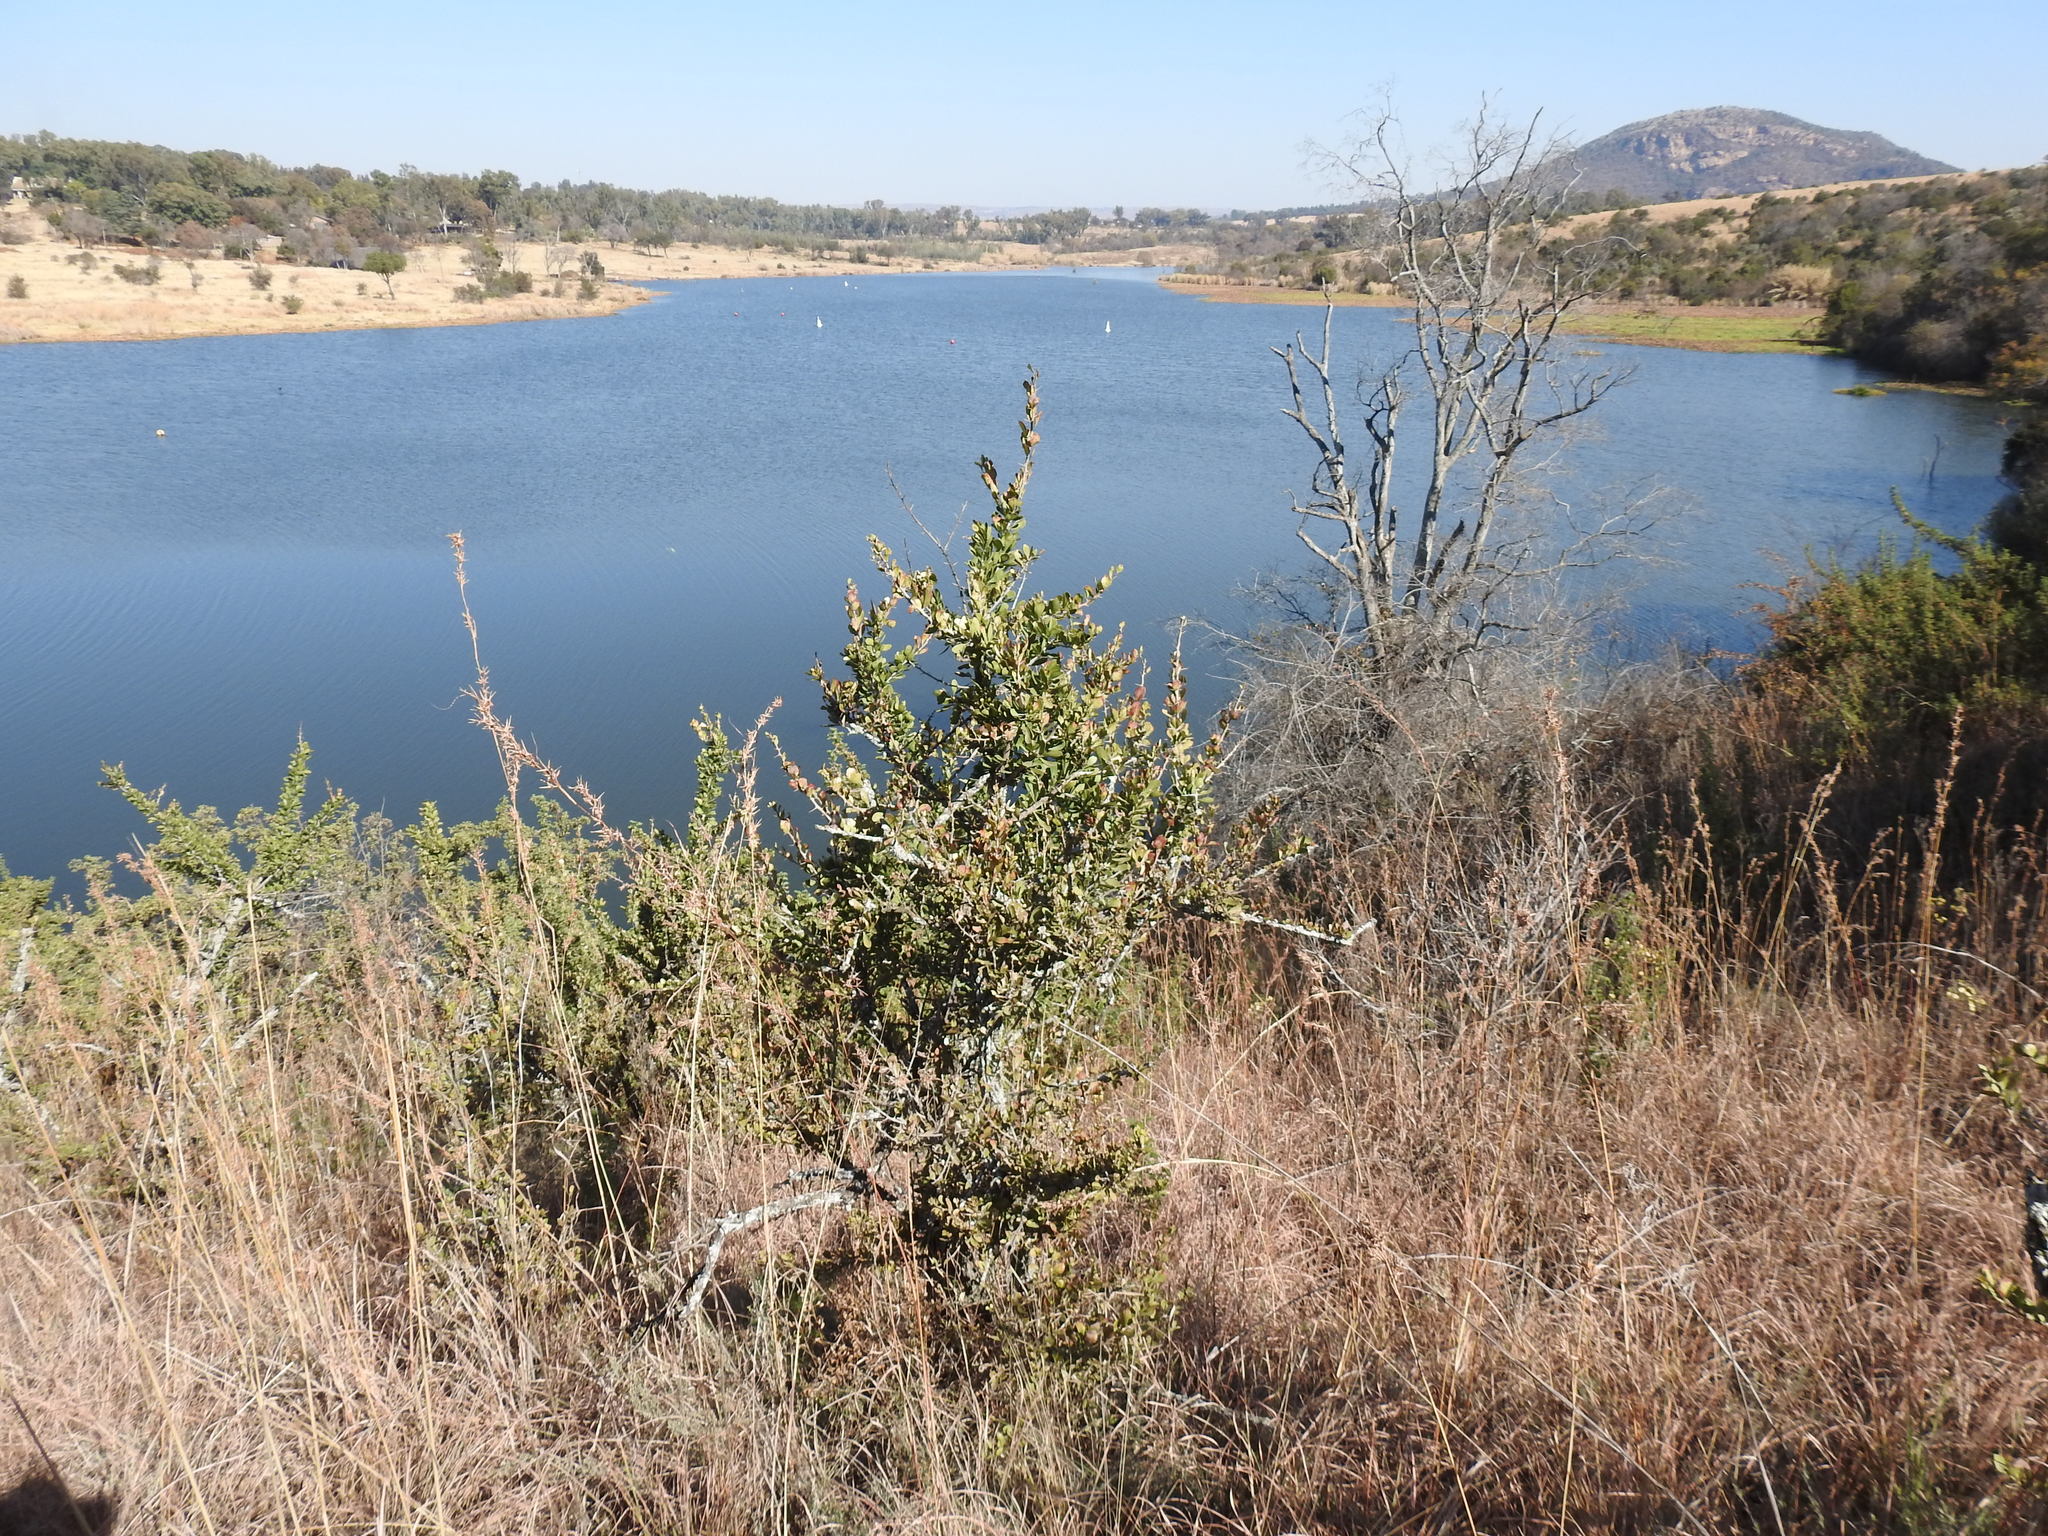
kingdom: Plantae
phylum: Tracheophyta
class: Magnoliopsida
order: Celastrales
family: Celastraceae
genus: Gymnosporia
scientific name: Gymnosporia buxifolia
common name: Common spike-thorn
